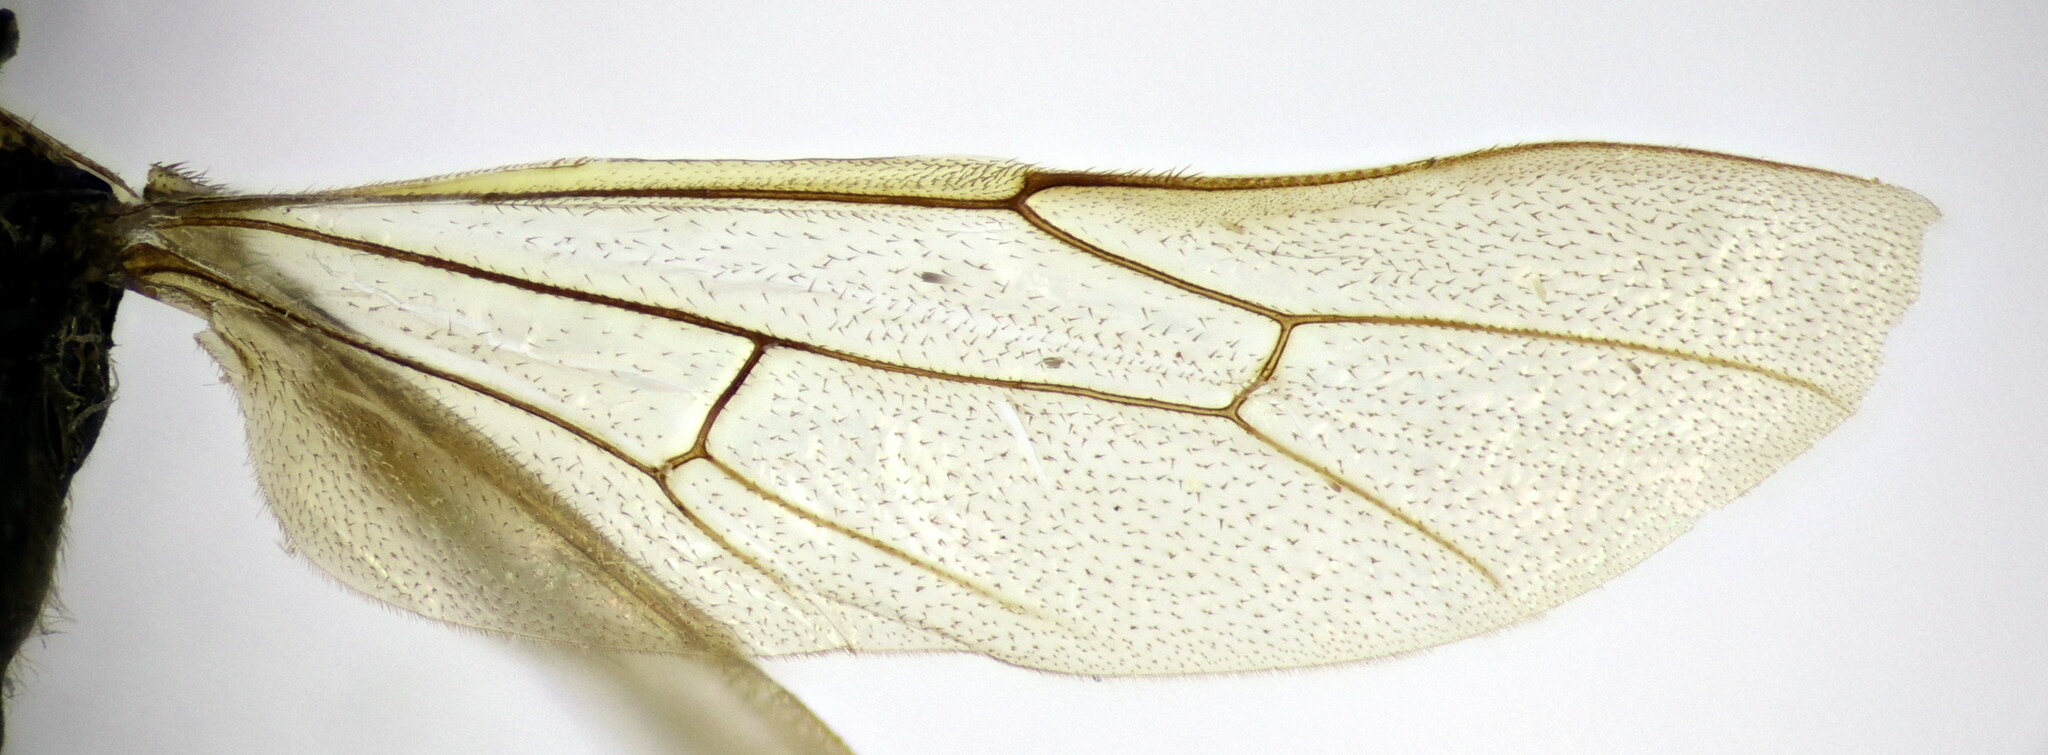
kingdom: Animalia
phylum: Arthropoda
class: Insecta
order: Hymenoptera
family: Ichneumonidae
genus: Eutanyacra
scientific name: Eutanyacra picta
